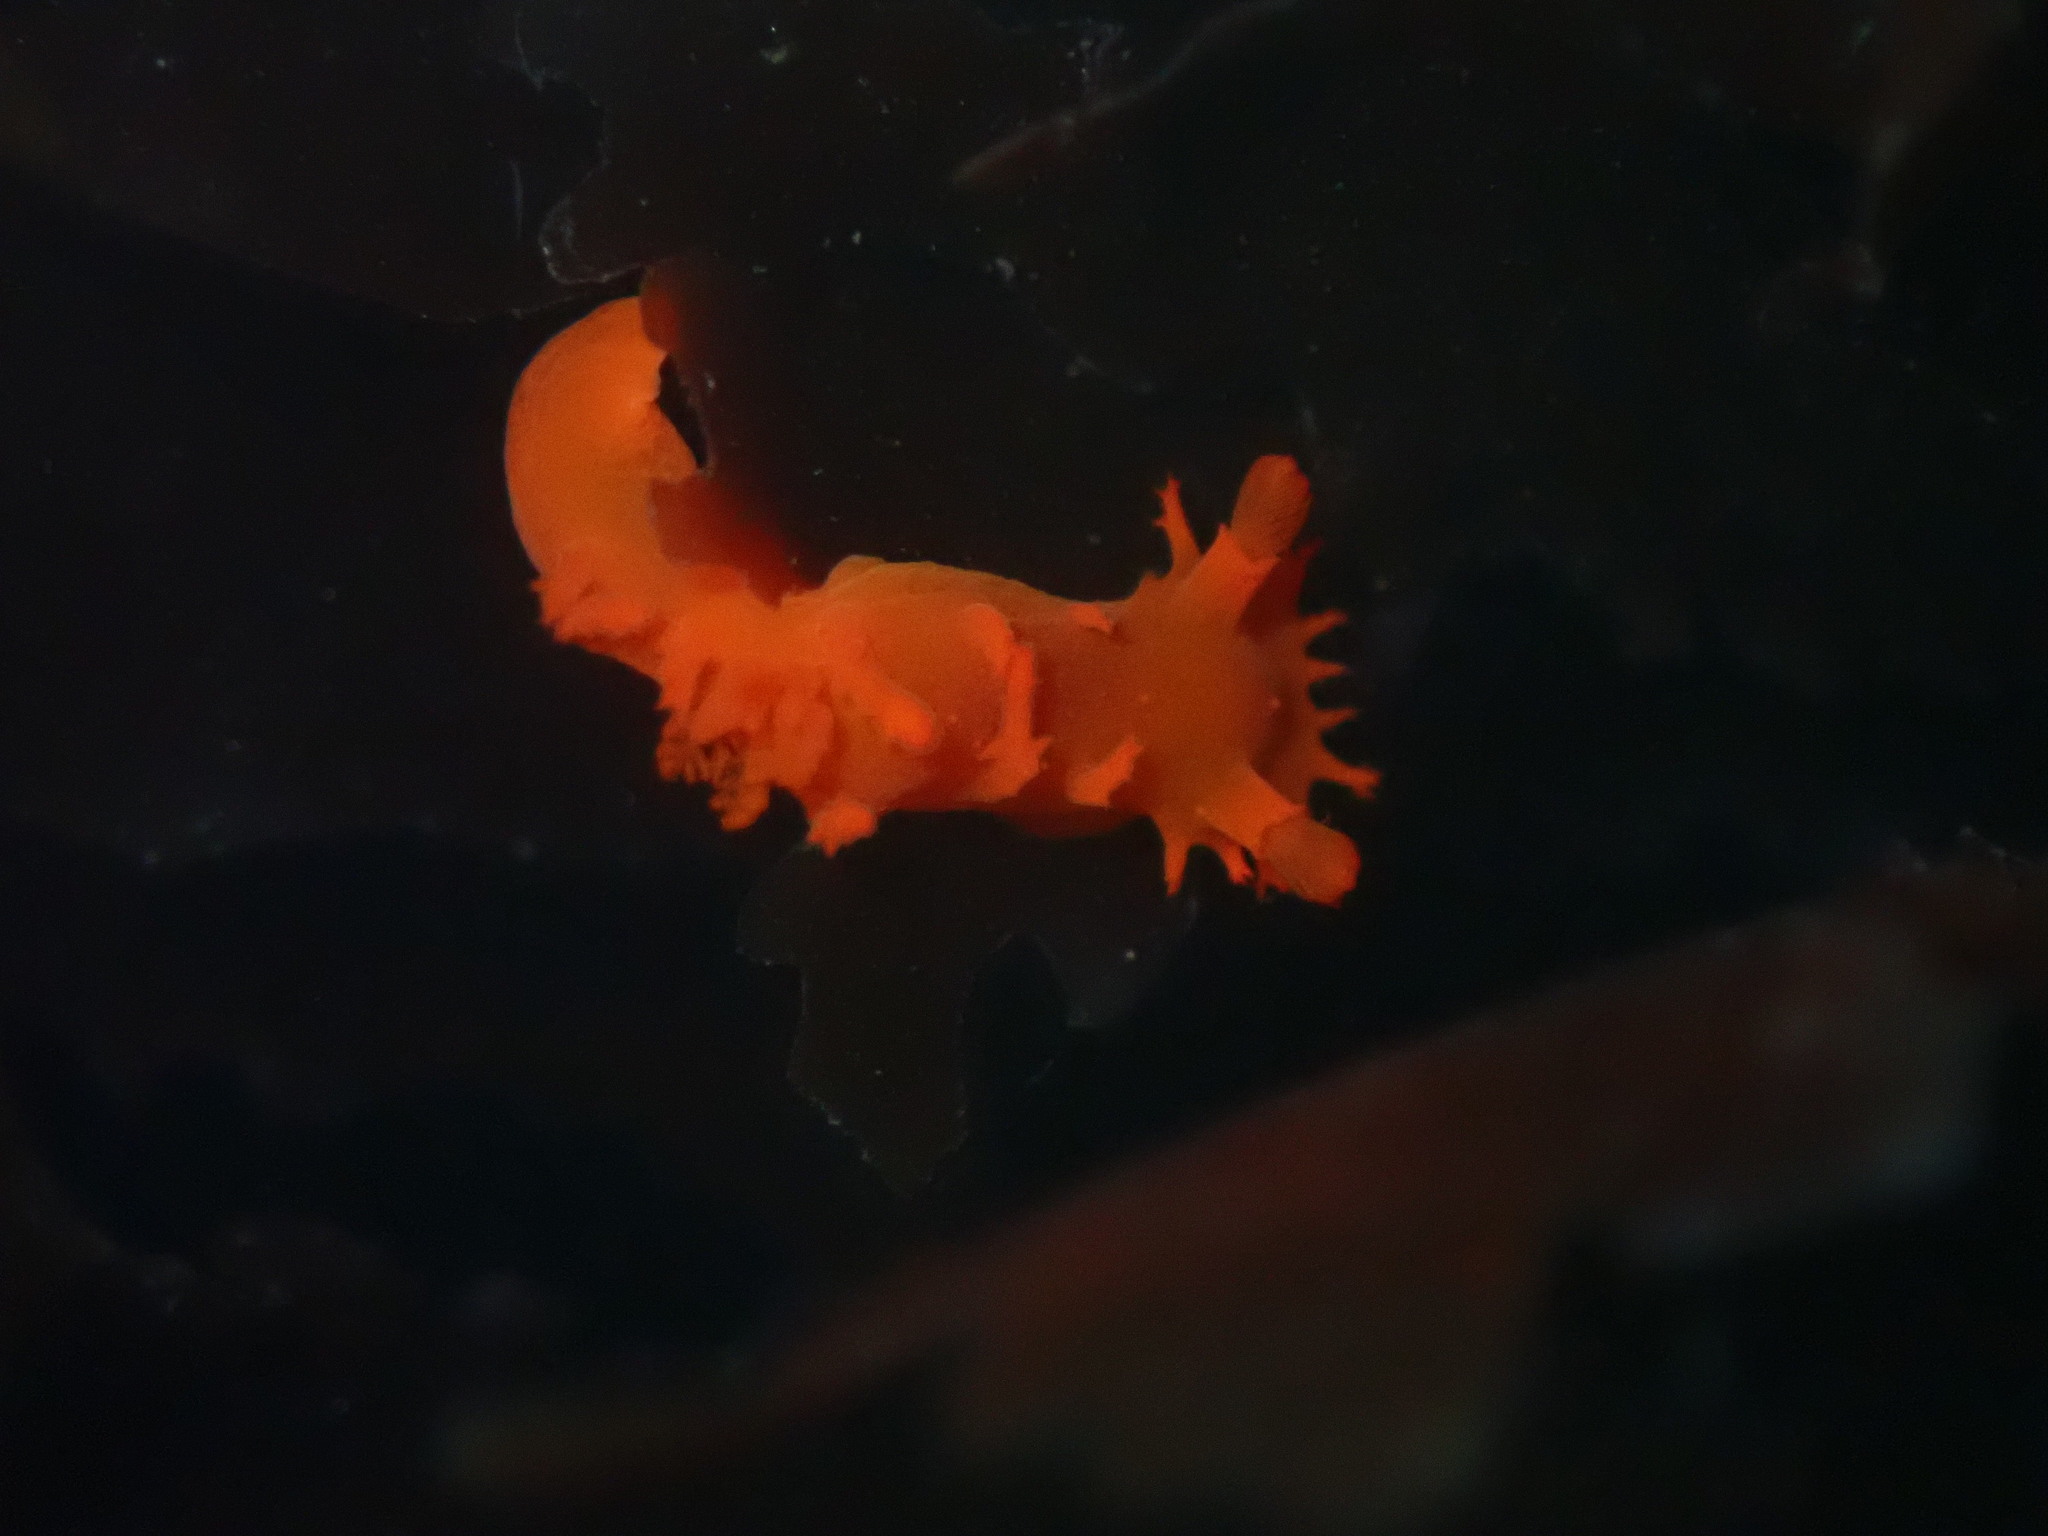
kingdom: Animalia
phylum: Mollusca
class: Gastropoda
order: Nudibranchia
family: Polyceridae
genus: Triopha
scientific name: Triopha maculata
